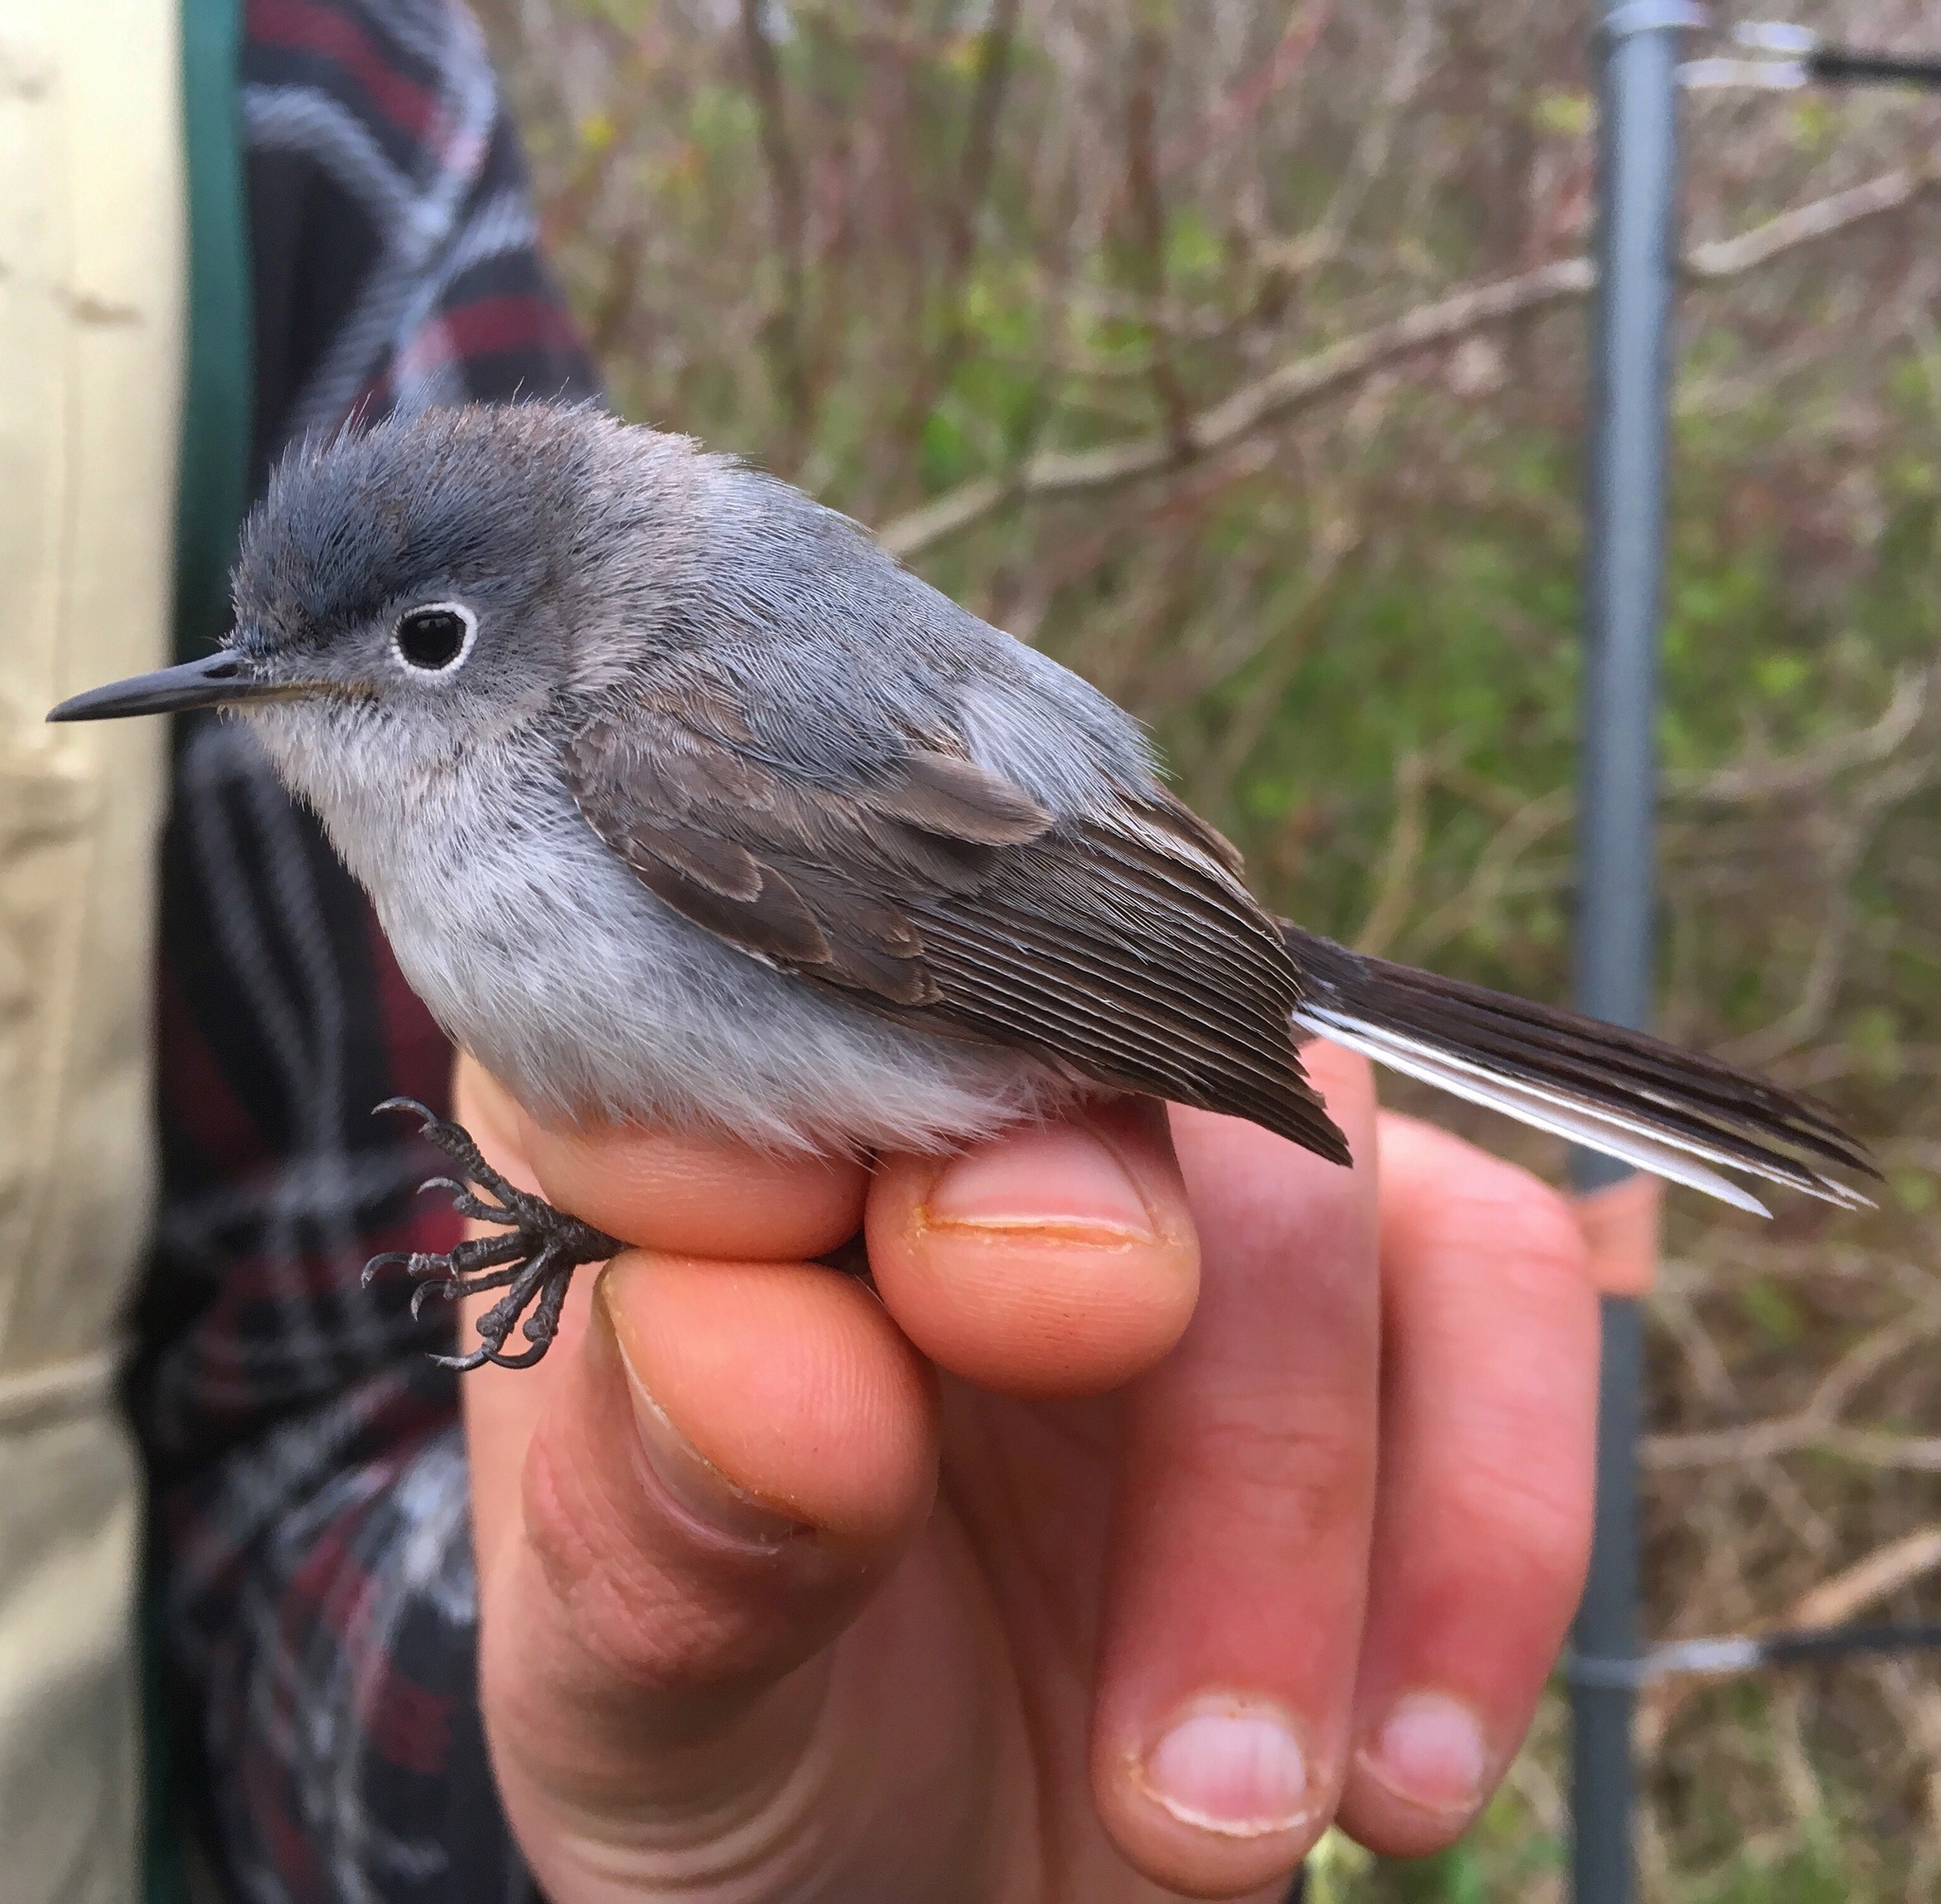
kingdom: Animalia
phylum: Chordata
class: Aves
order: Passeriformes
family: Polioptilidae
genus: Polioptila
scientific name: Polioptila caerulea
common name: Blue-gray gnatcatcher
